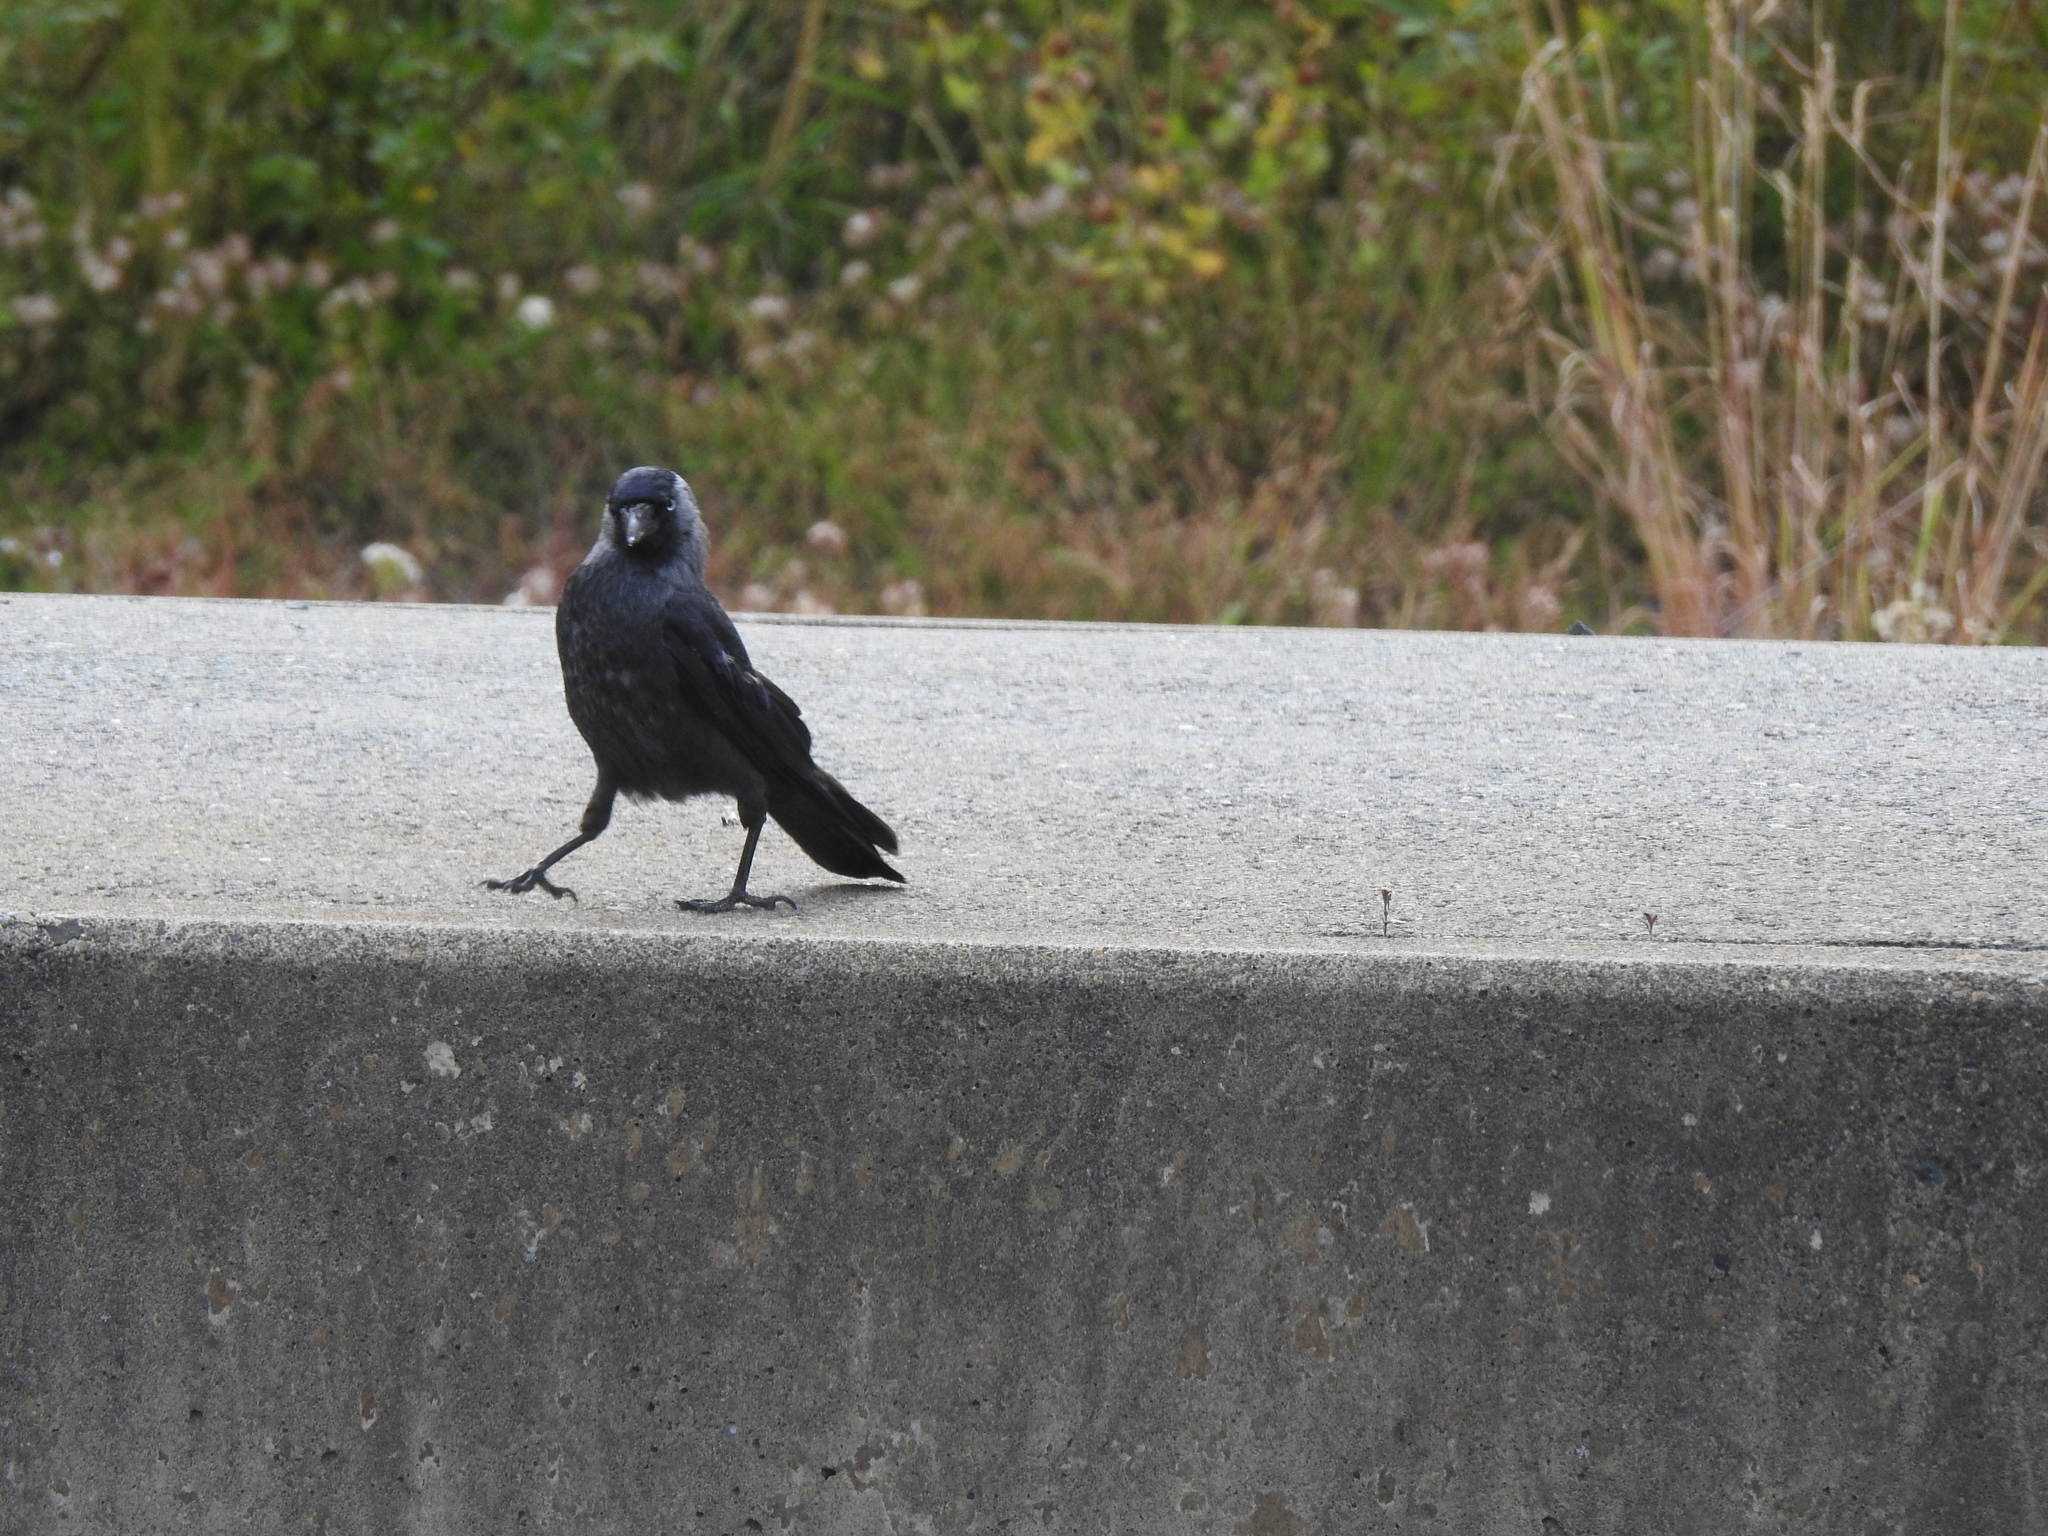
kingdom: Animalia
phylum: Chordata
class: Aves
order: Passeriformes
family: Corvidae
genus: Coloeus
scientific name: Coloeus monedula
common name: Western jackdaw
